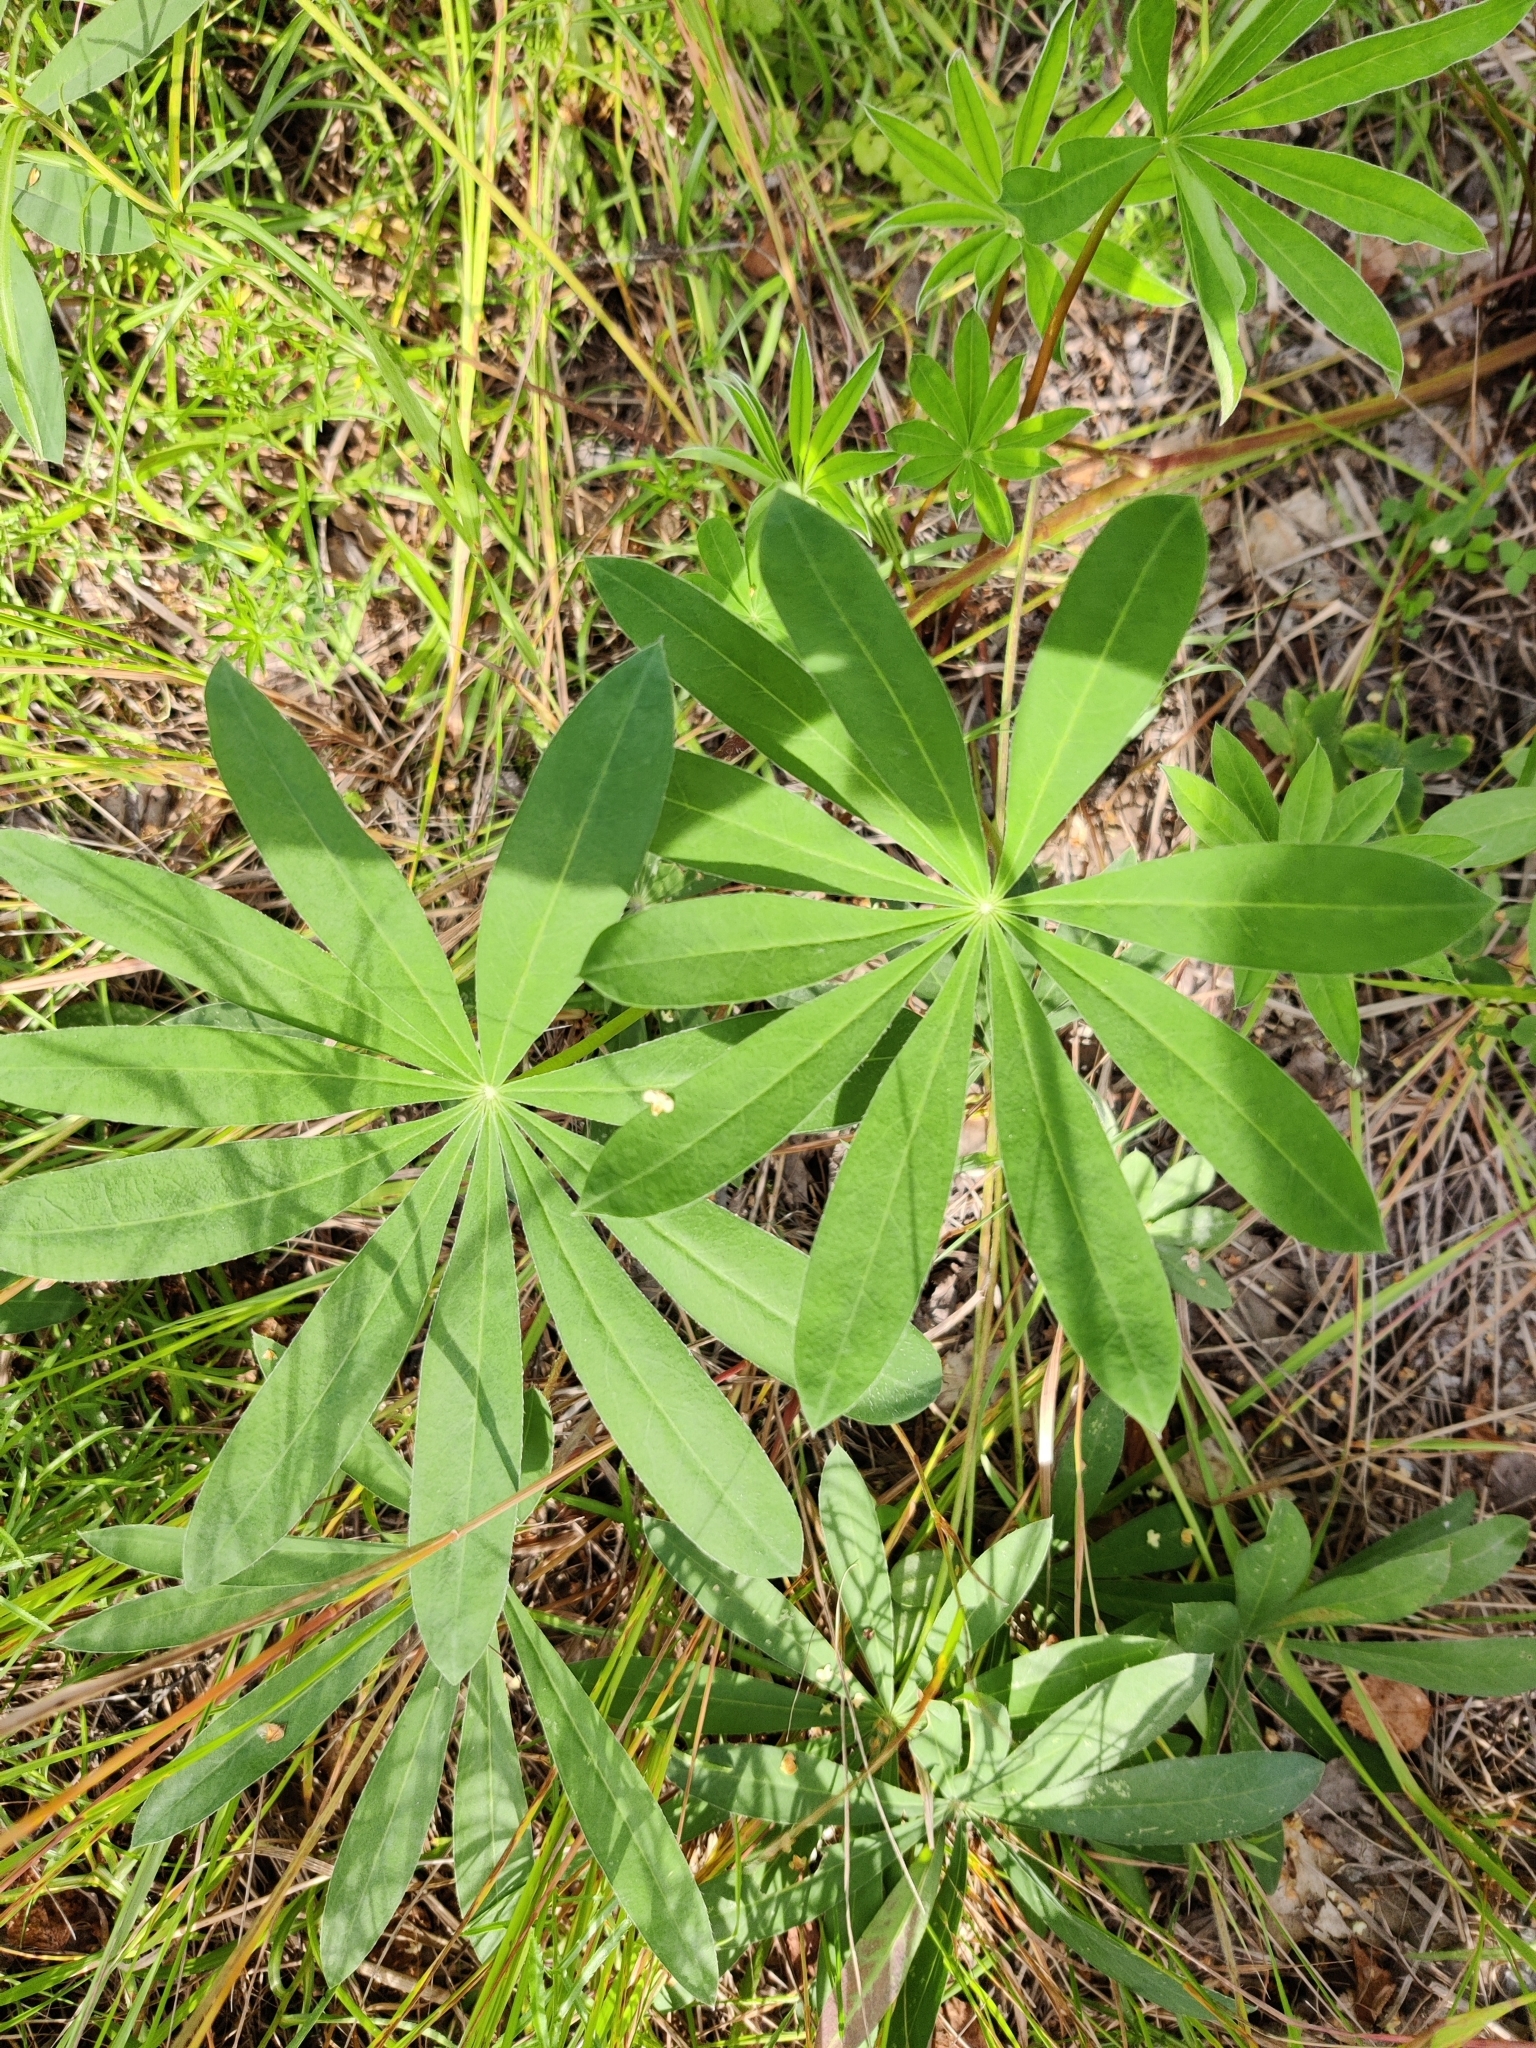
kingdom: Plantae
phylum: Tracheophyta
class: Magnoliopsida
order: Fabales
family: Fabaceae
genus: Lupinus
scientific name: Lupinus polyphyllus
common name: Garden lupin
